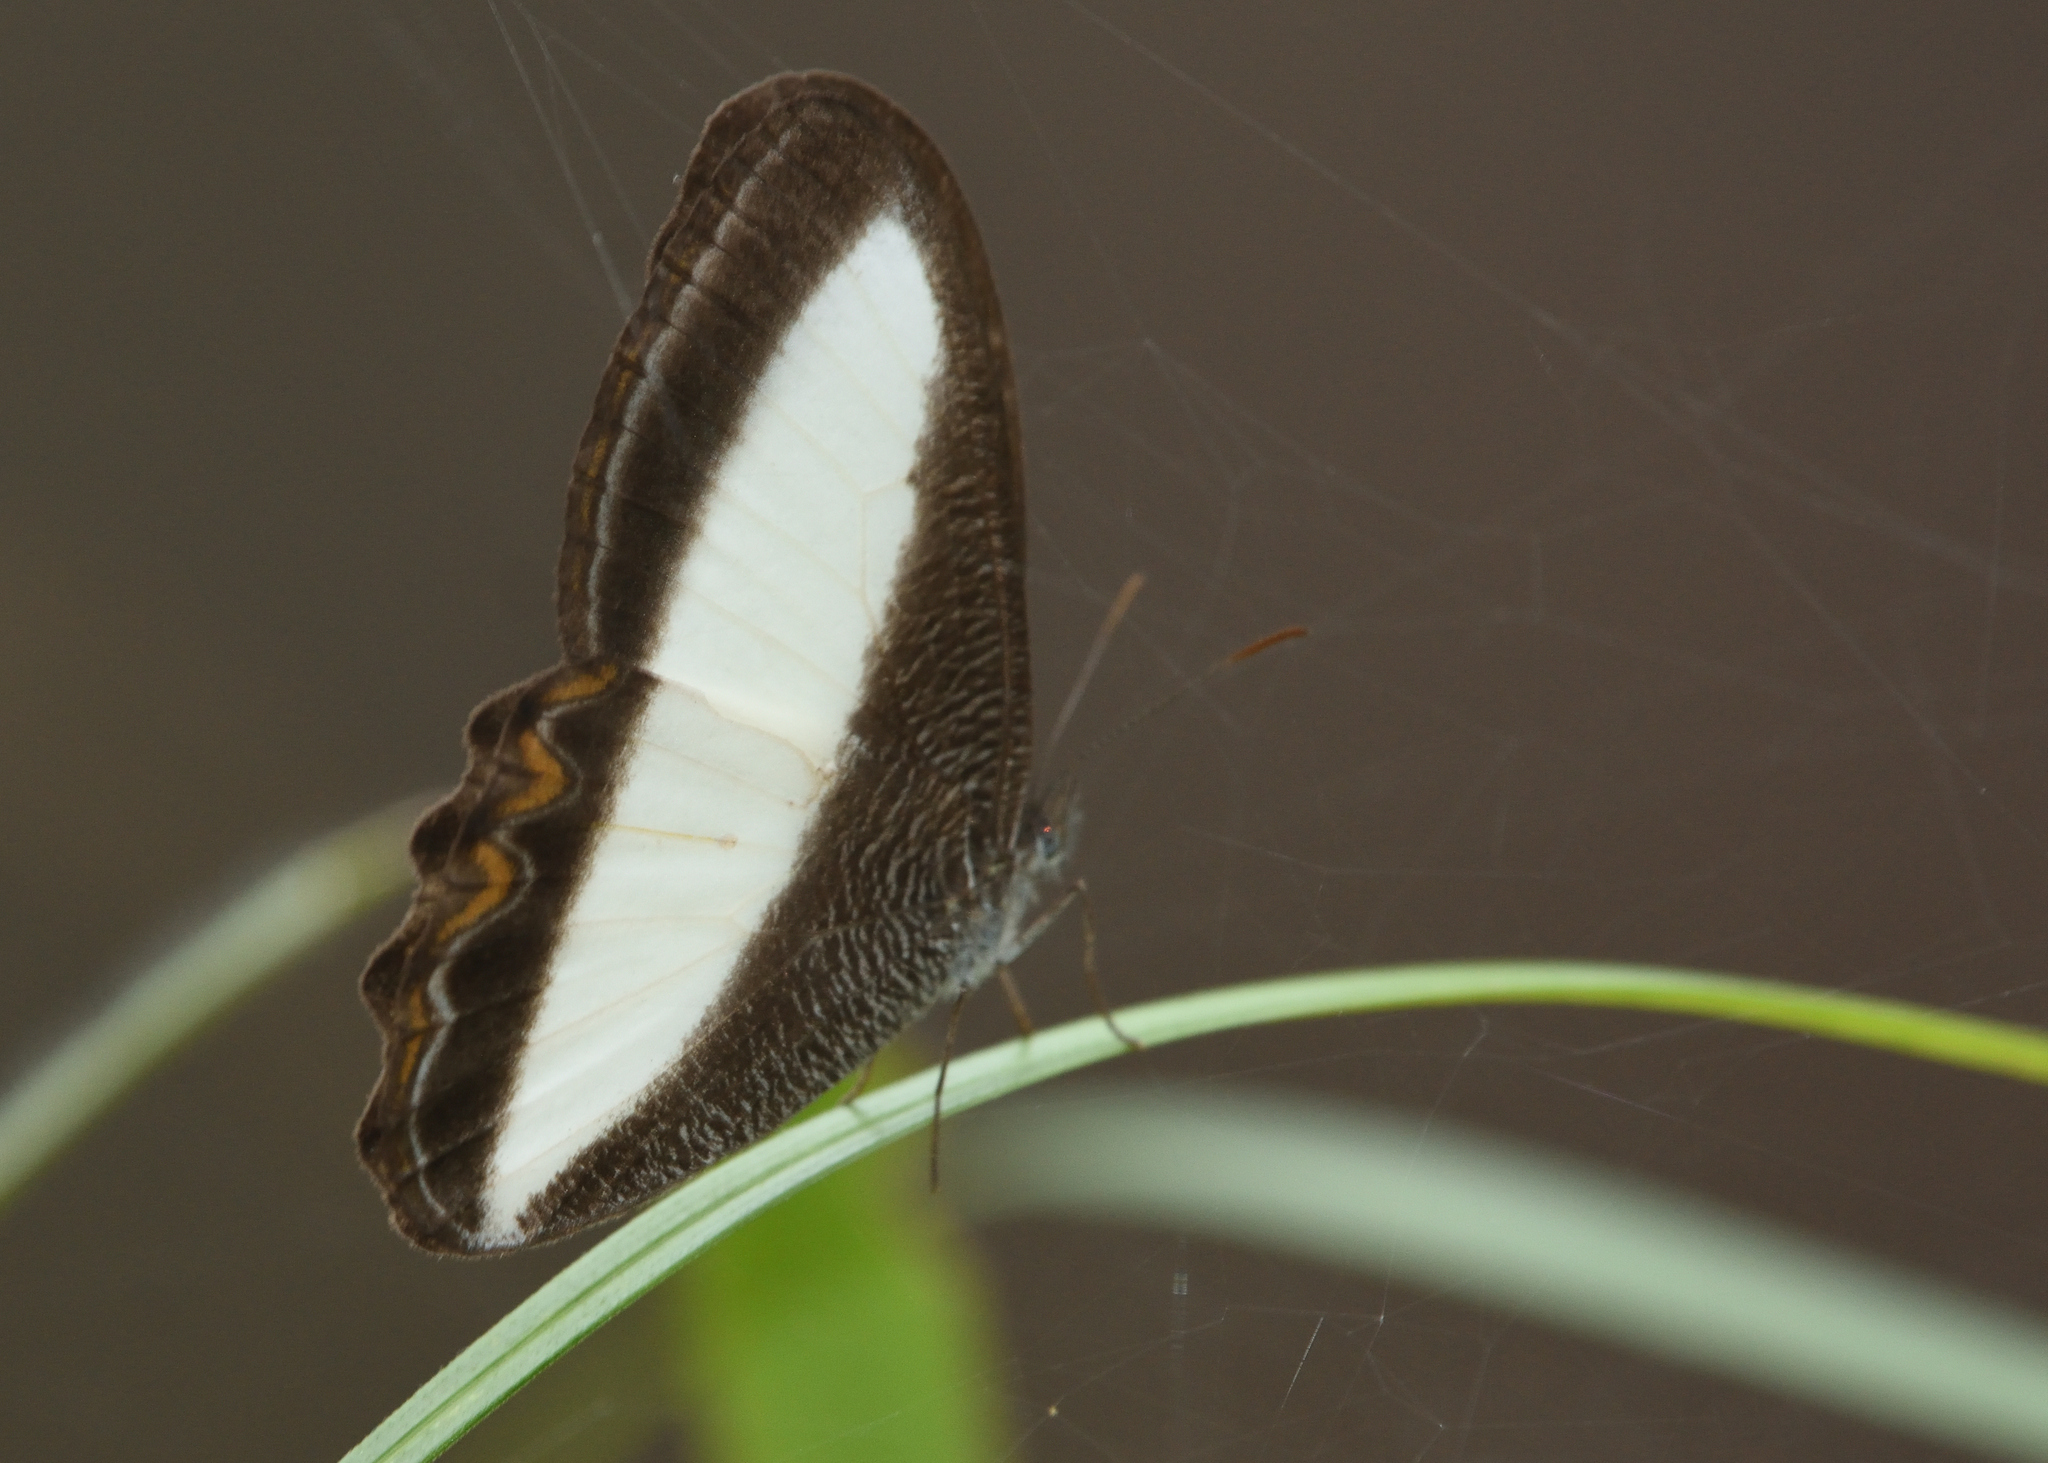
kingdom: Animalia
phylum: Arthropoda
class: Insecta
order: Lepidoptera
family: Nymphalidae
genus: Oressinoma
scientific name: Oressinoma typhla
